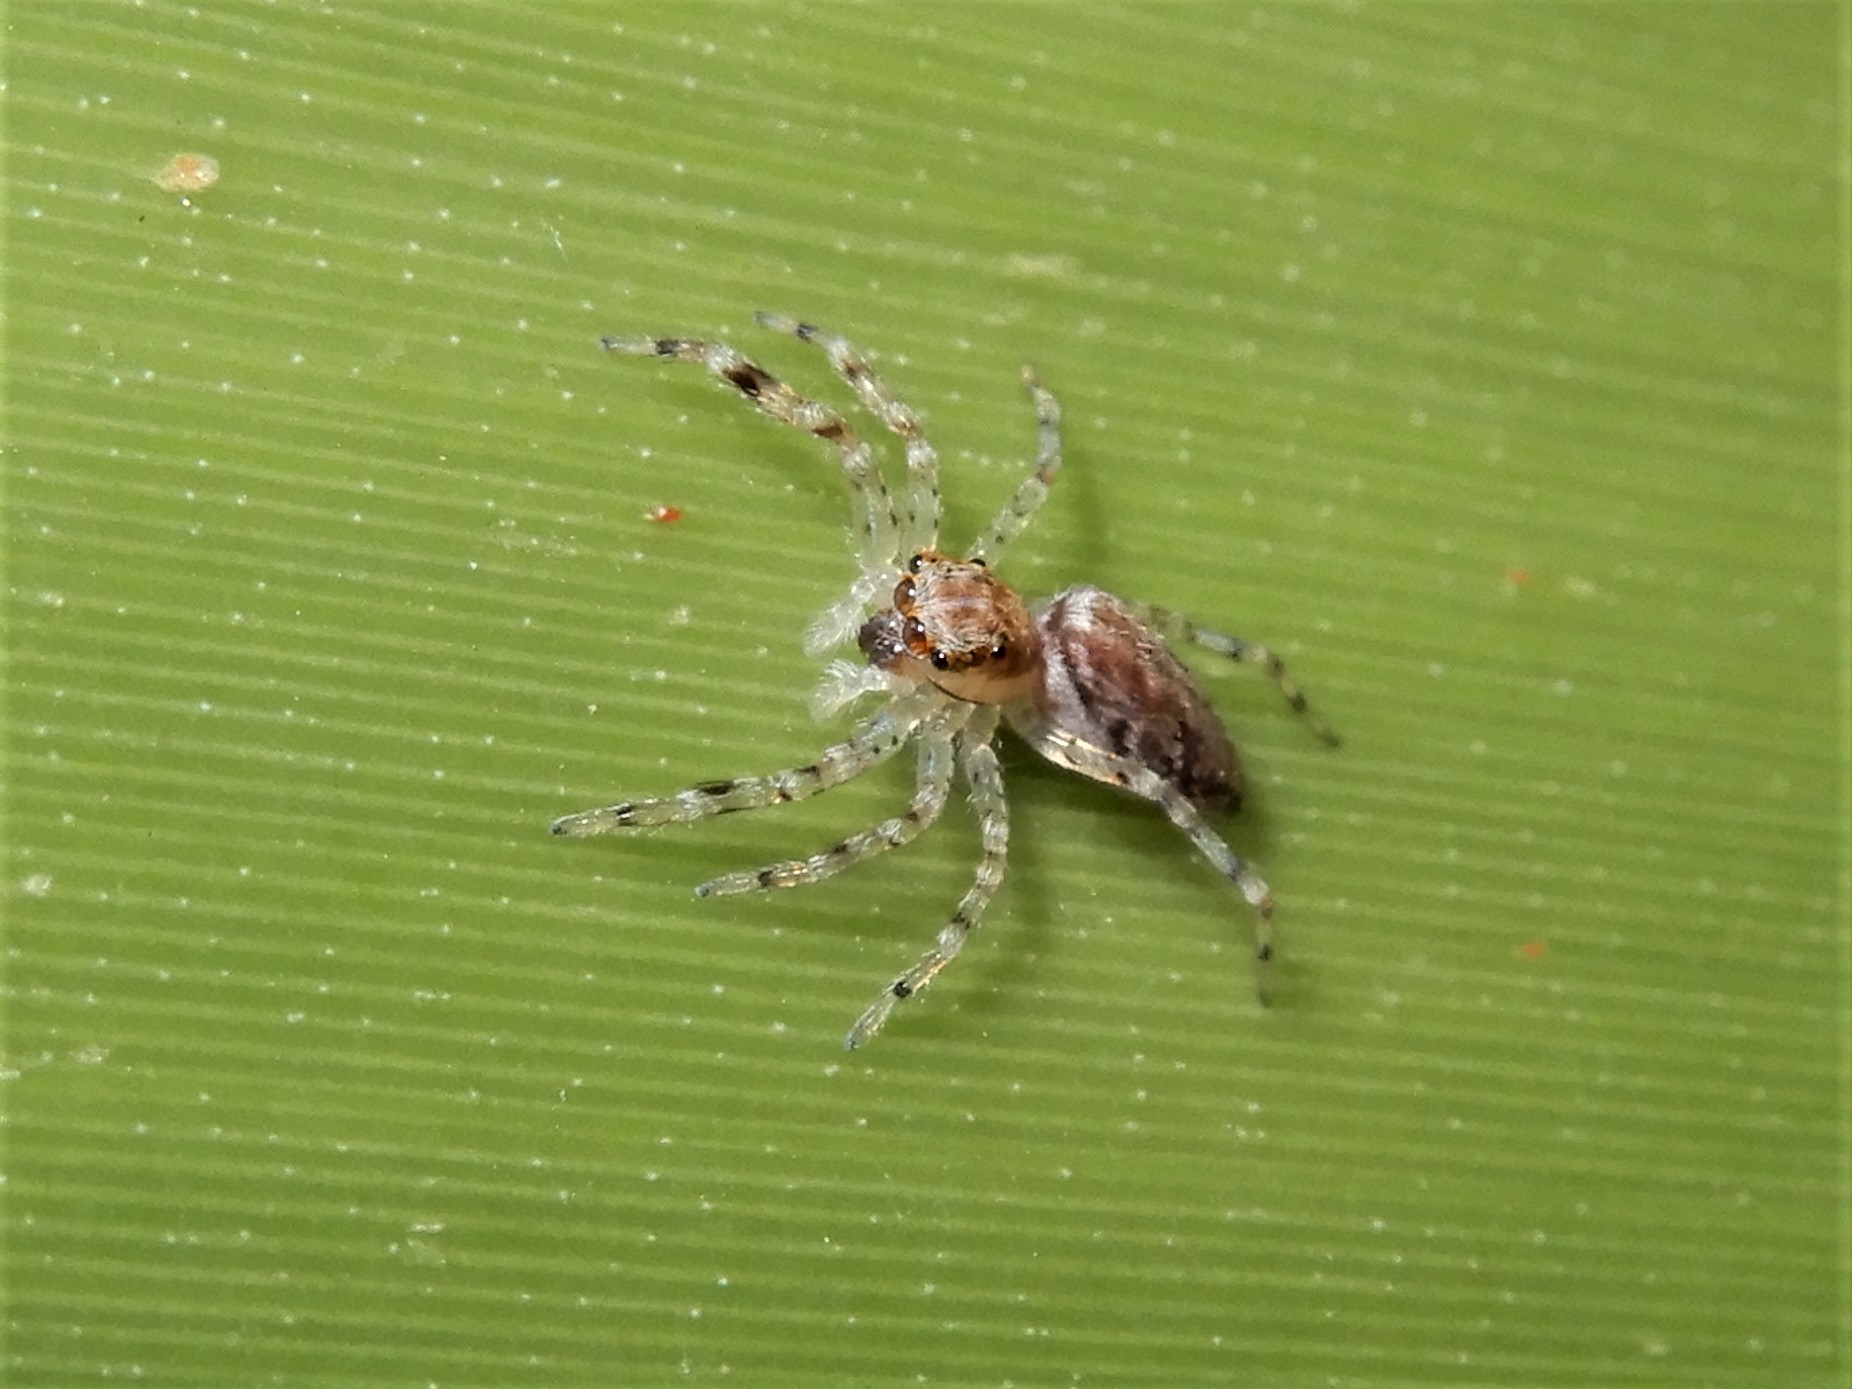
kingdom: Animalia
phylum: Arthropoda
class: Arachnida
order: Araneae
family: Salticidae
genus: Helpis
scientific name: Helpis minitabunda
